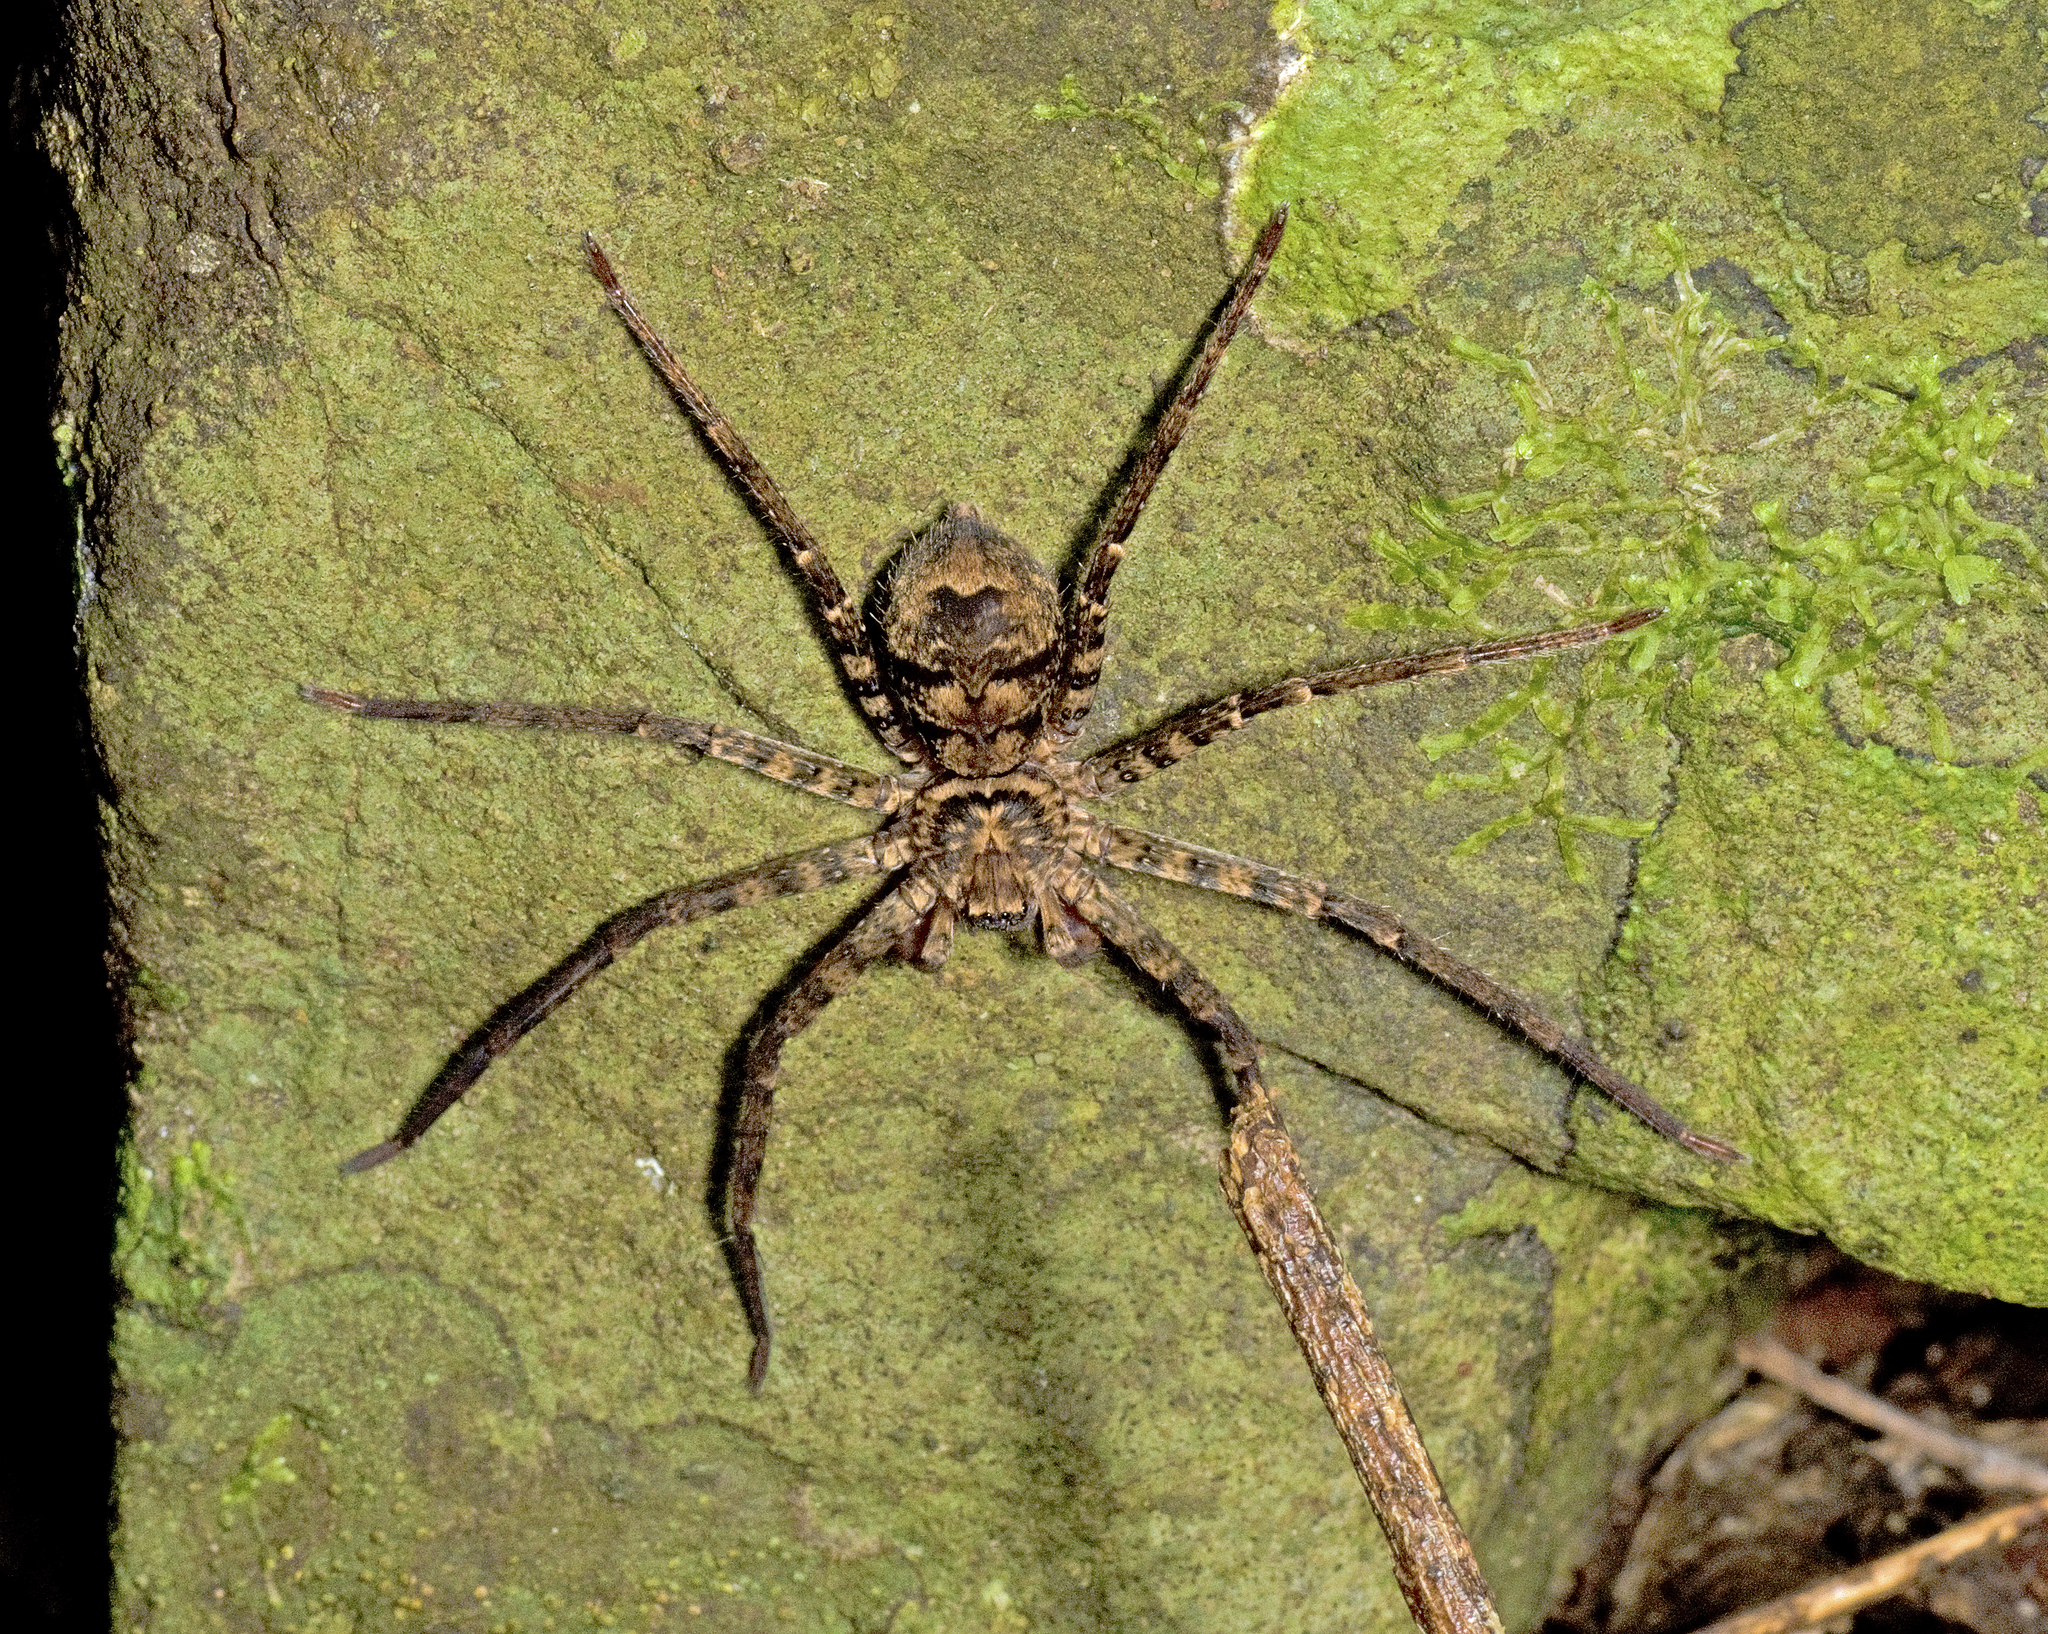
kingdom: Animalia
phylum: Arthropoda
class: Arachnida
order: Araneae
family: Sparassidae
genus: Heteropoda
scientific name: Heteropoda procera
